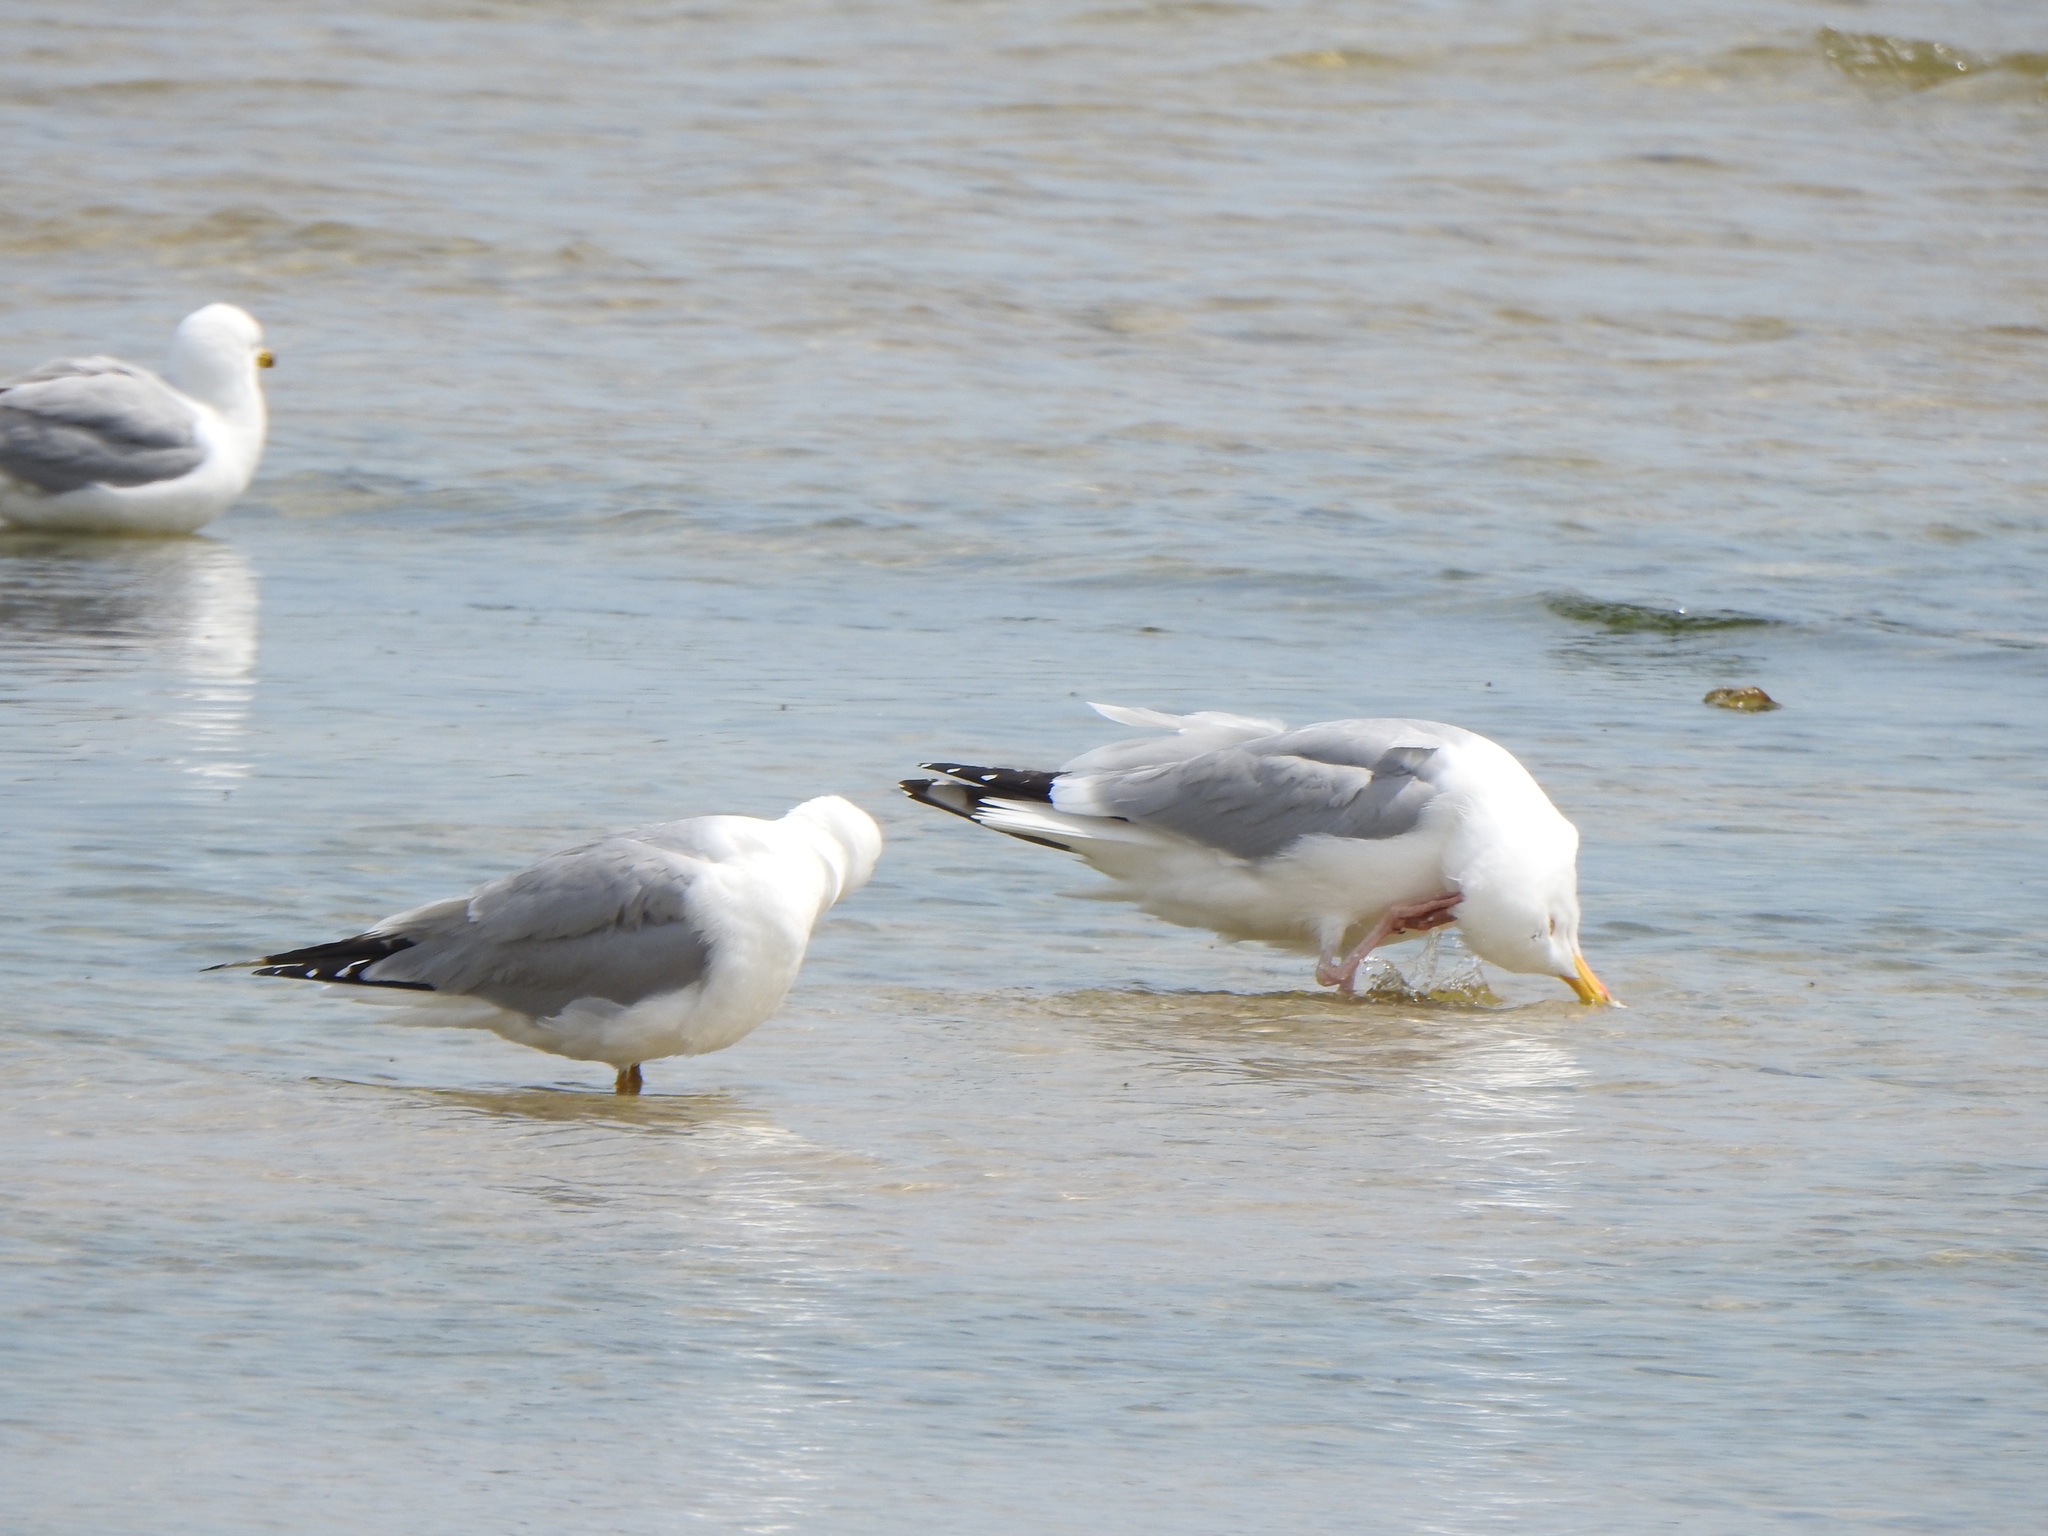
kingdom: Animalia
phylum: Chordata
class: Aves
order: Charadriiformes
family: Laridae
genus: Larus
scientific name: Larus argentatus
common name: Herring gull
